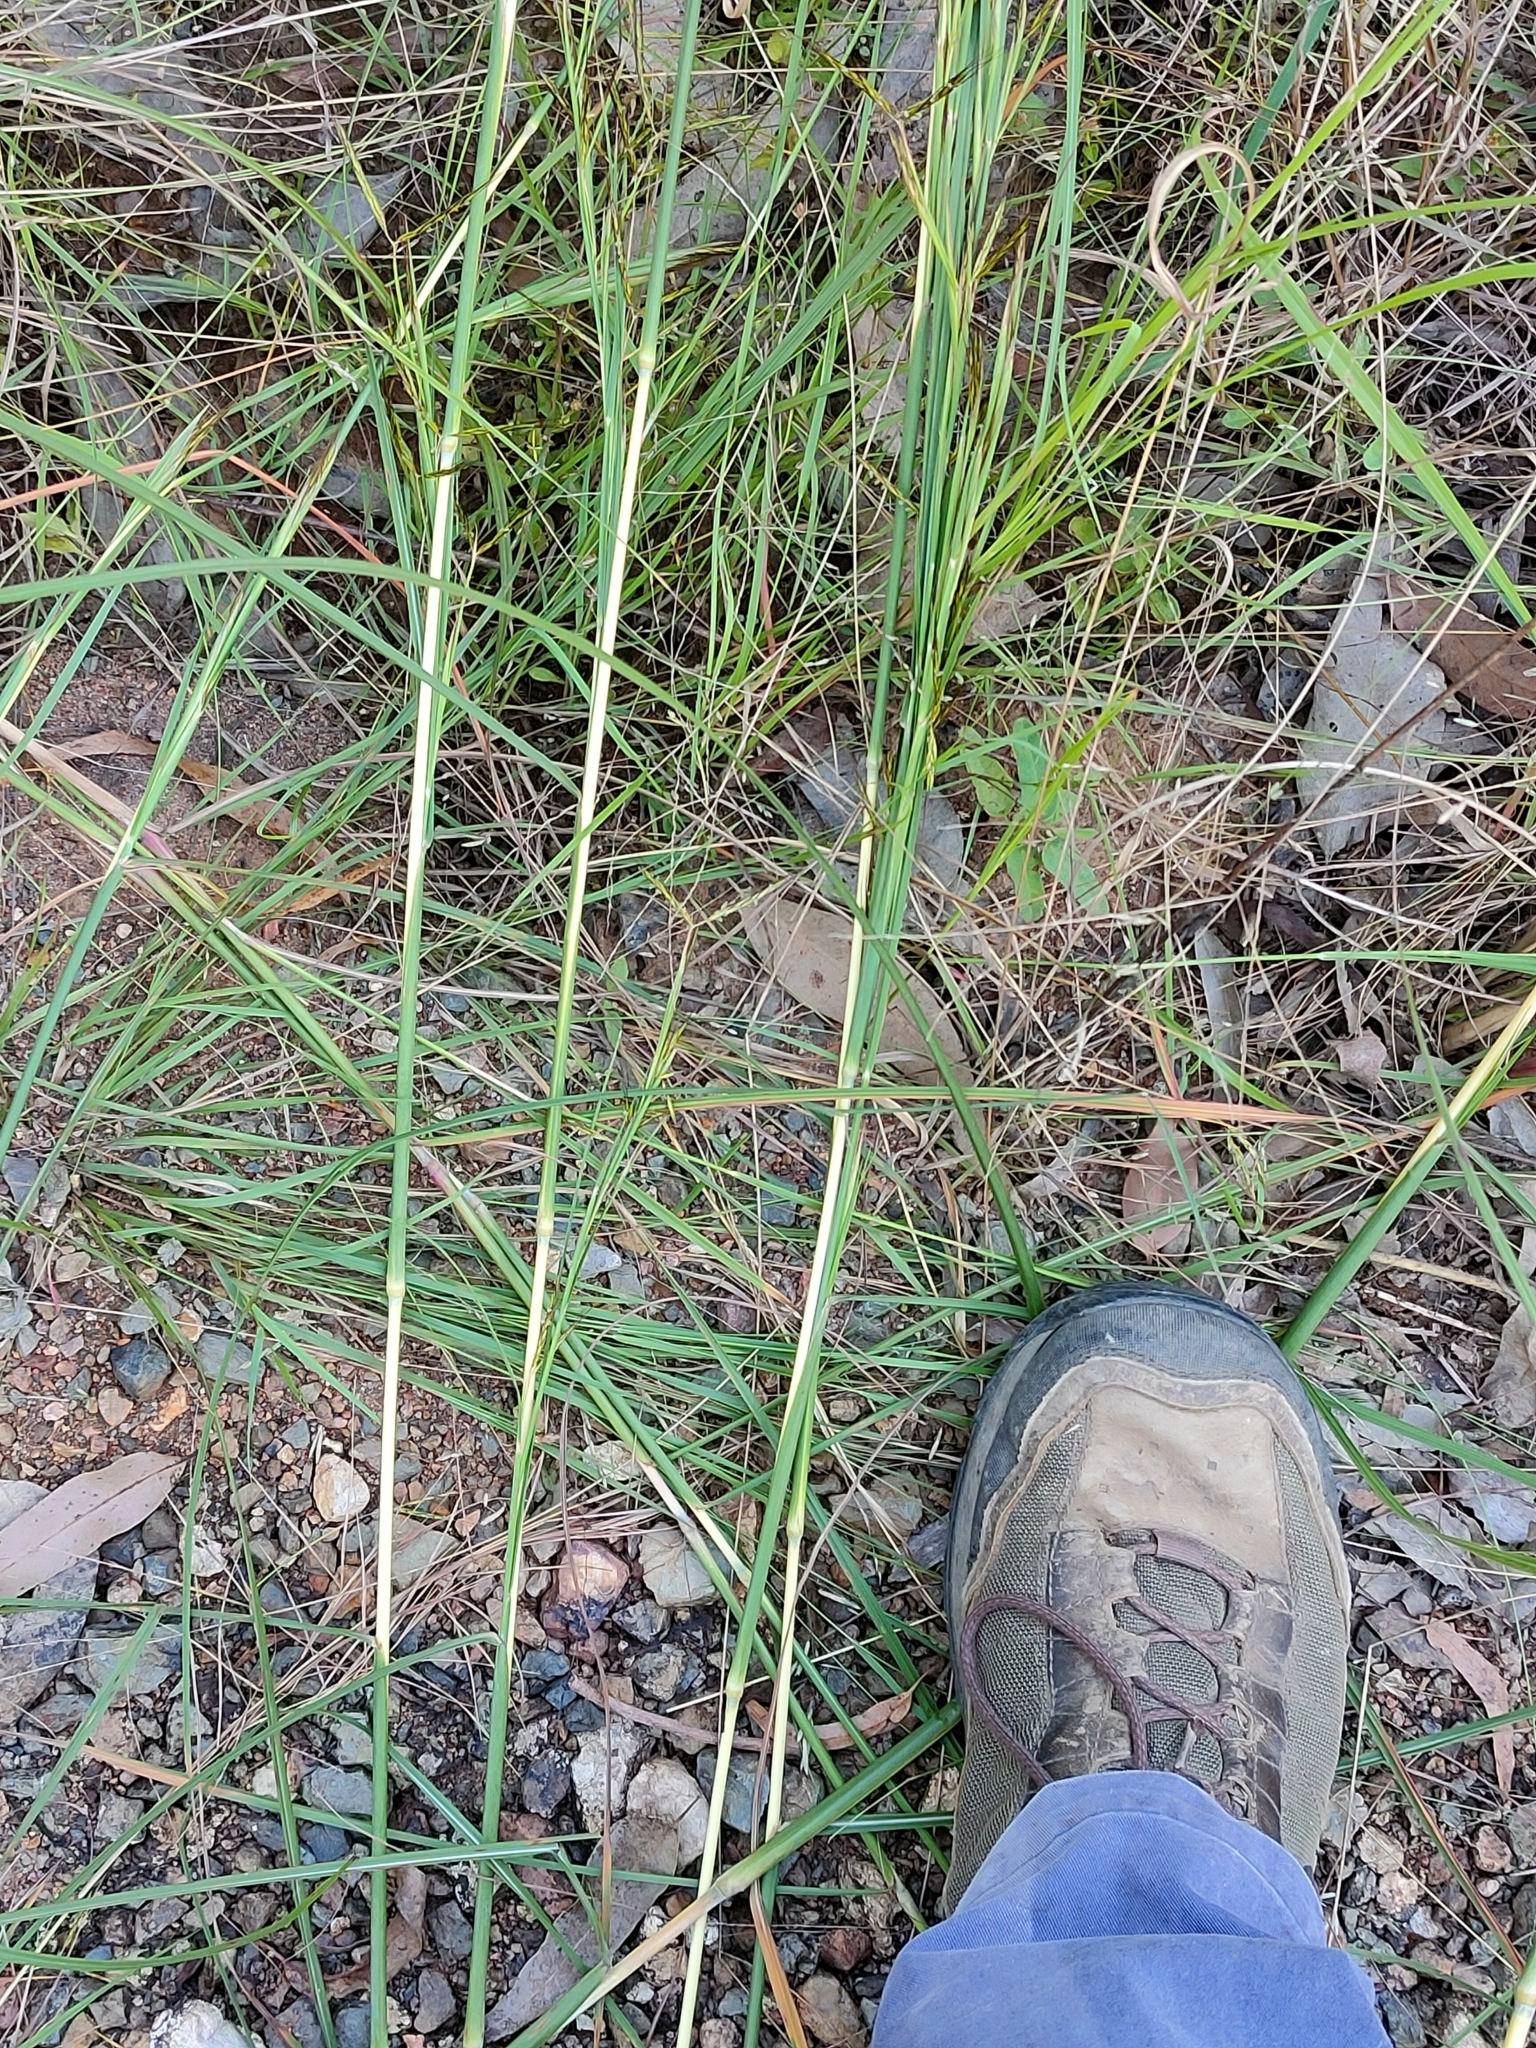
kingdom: Plantae
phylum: Tracheophyta
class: Liliopsida
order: Poales
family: Poaceae
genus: Hyparrhenia
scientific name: Hyparrhenia rufa
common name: Jaraguagrass
